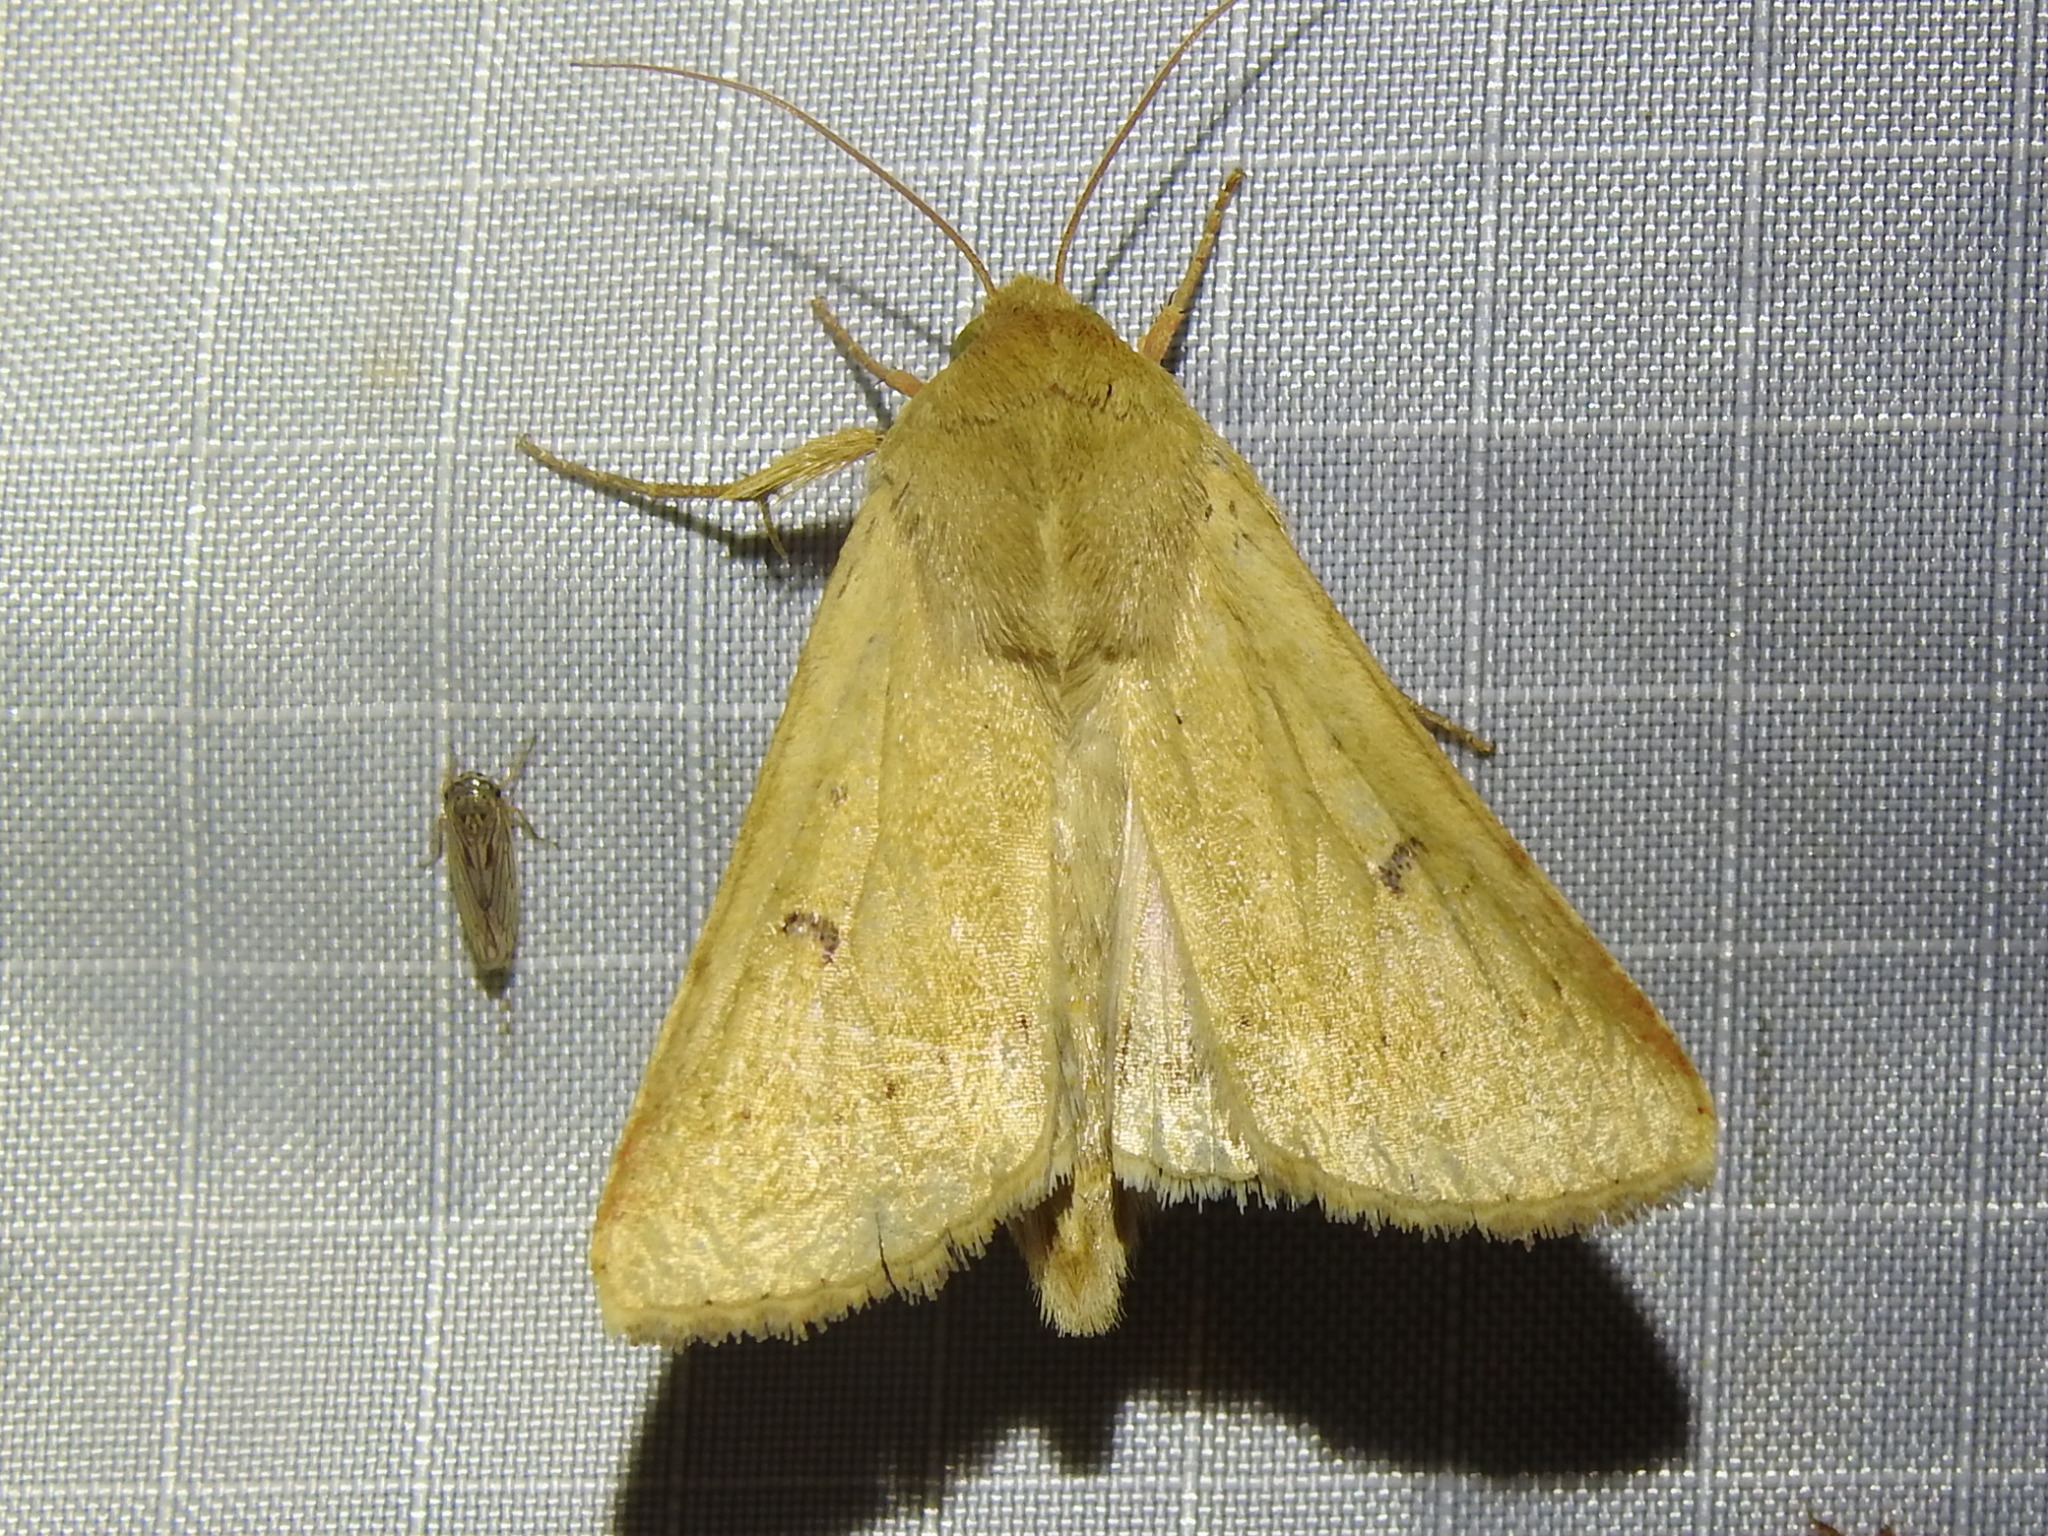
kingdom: Animalia
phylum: Arthropoda
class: Insecta
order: Lepidoptera
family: Noctuidae
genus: Helicoverpa
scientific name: Helicoverpa zea
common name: Bollworm
